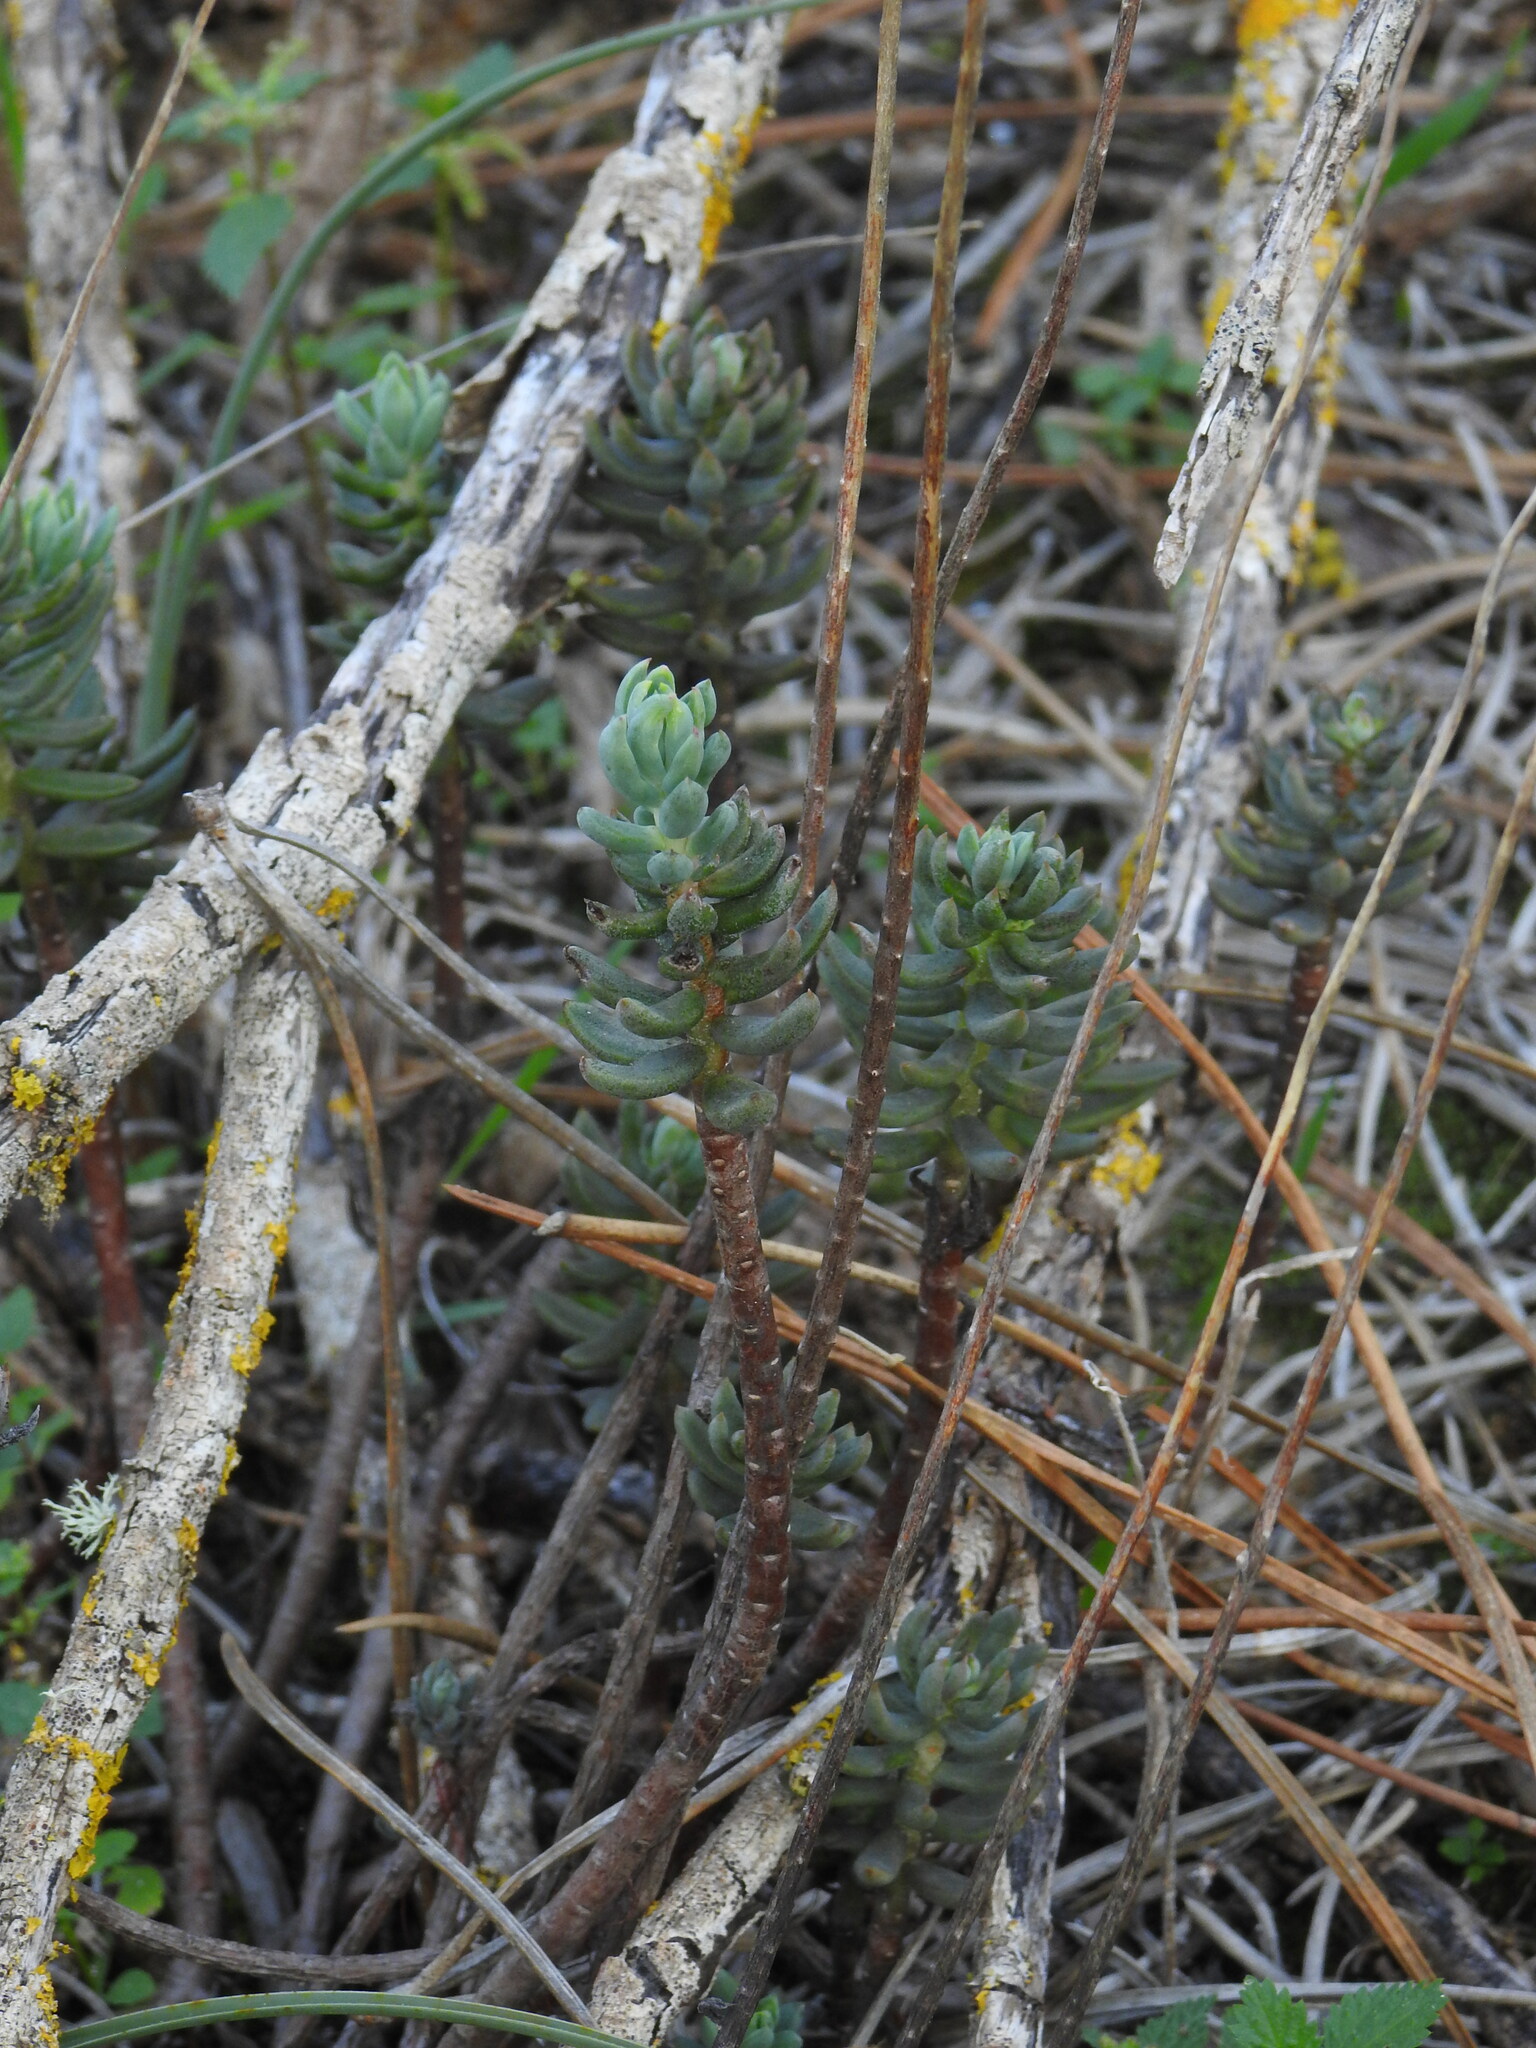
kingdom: Plantae
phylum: Tracheophyta
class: Magnoliopsida
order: Saxifragales
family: Crassulaceae
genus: Petrosedum
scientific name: Petrosedum sediforme
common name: Pale stonecrop
